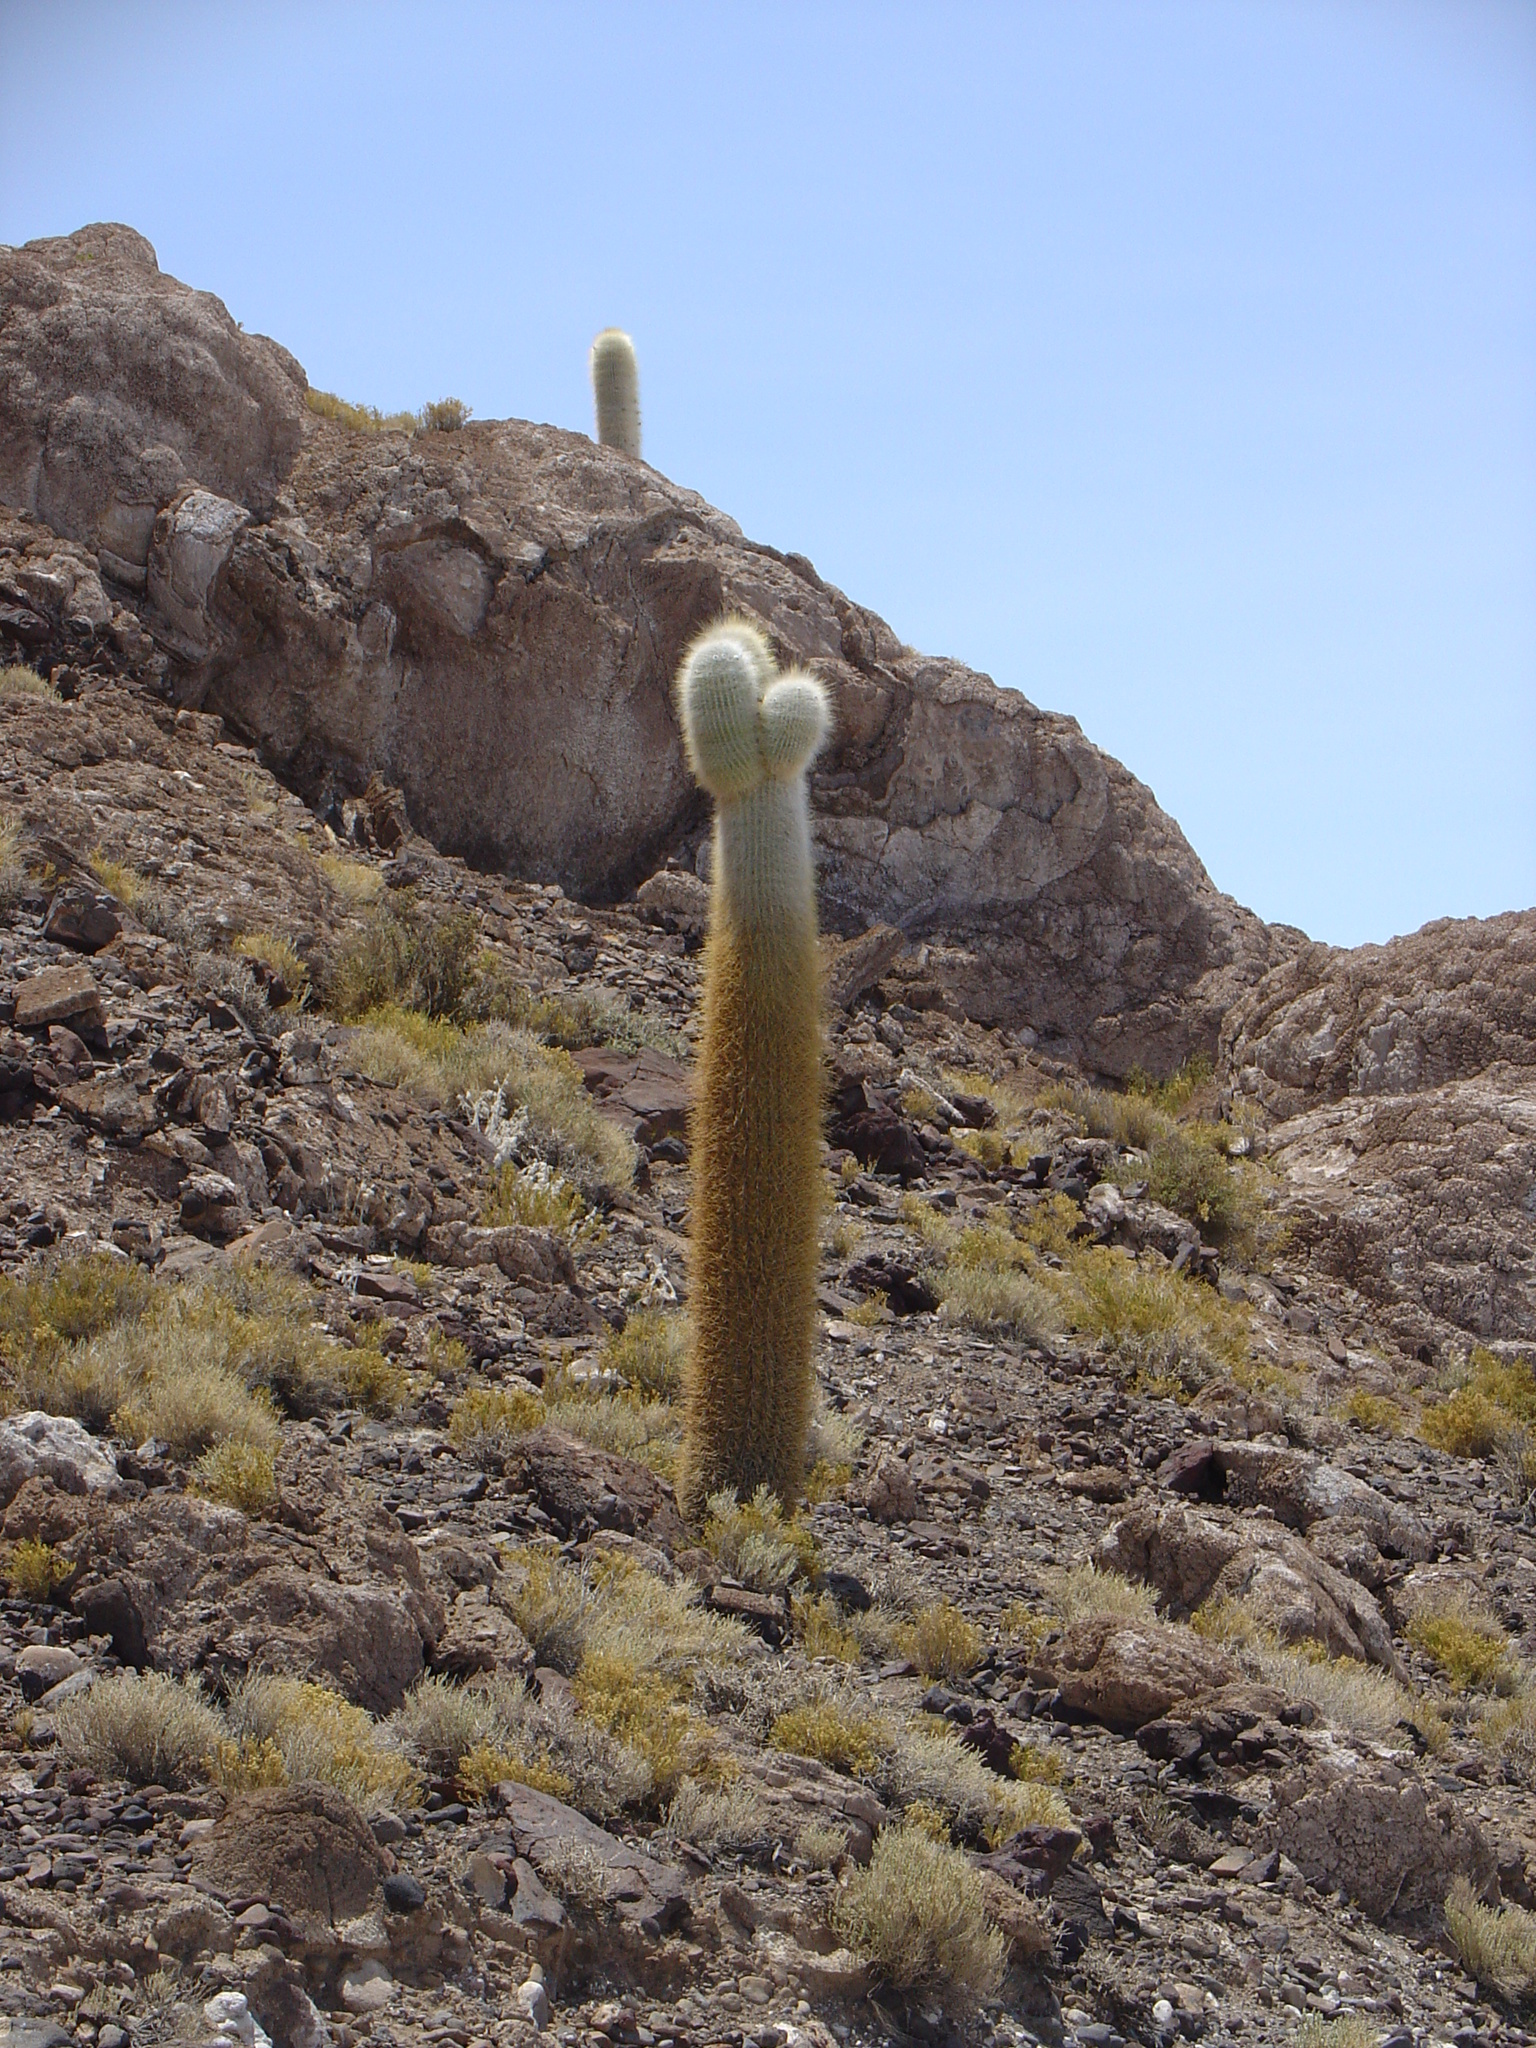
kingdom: Plantae
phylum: Tracheophyta
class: Magnoliopsida
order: Caryophyllales
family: Cactaceae
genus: Leucostele
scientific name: Leucostele atacamensis
